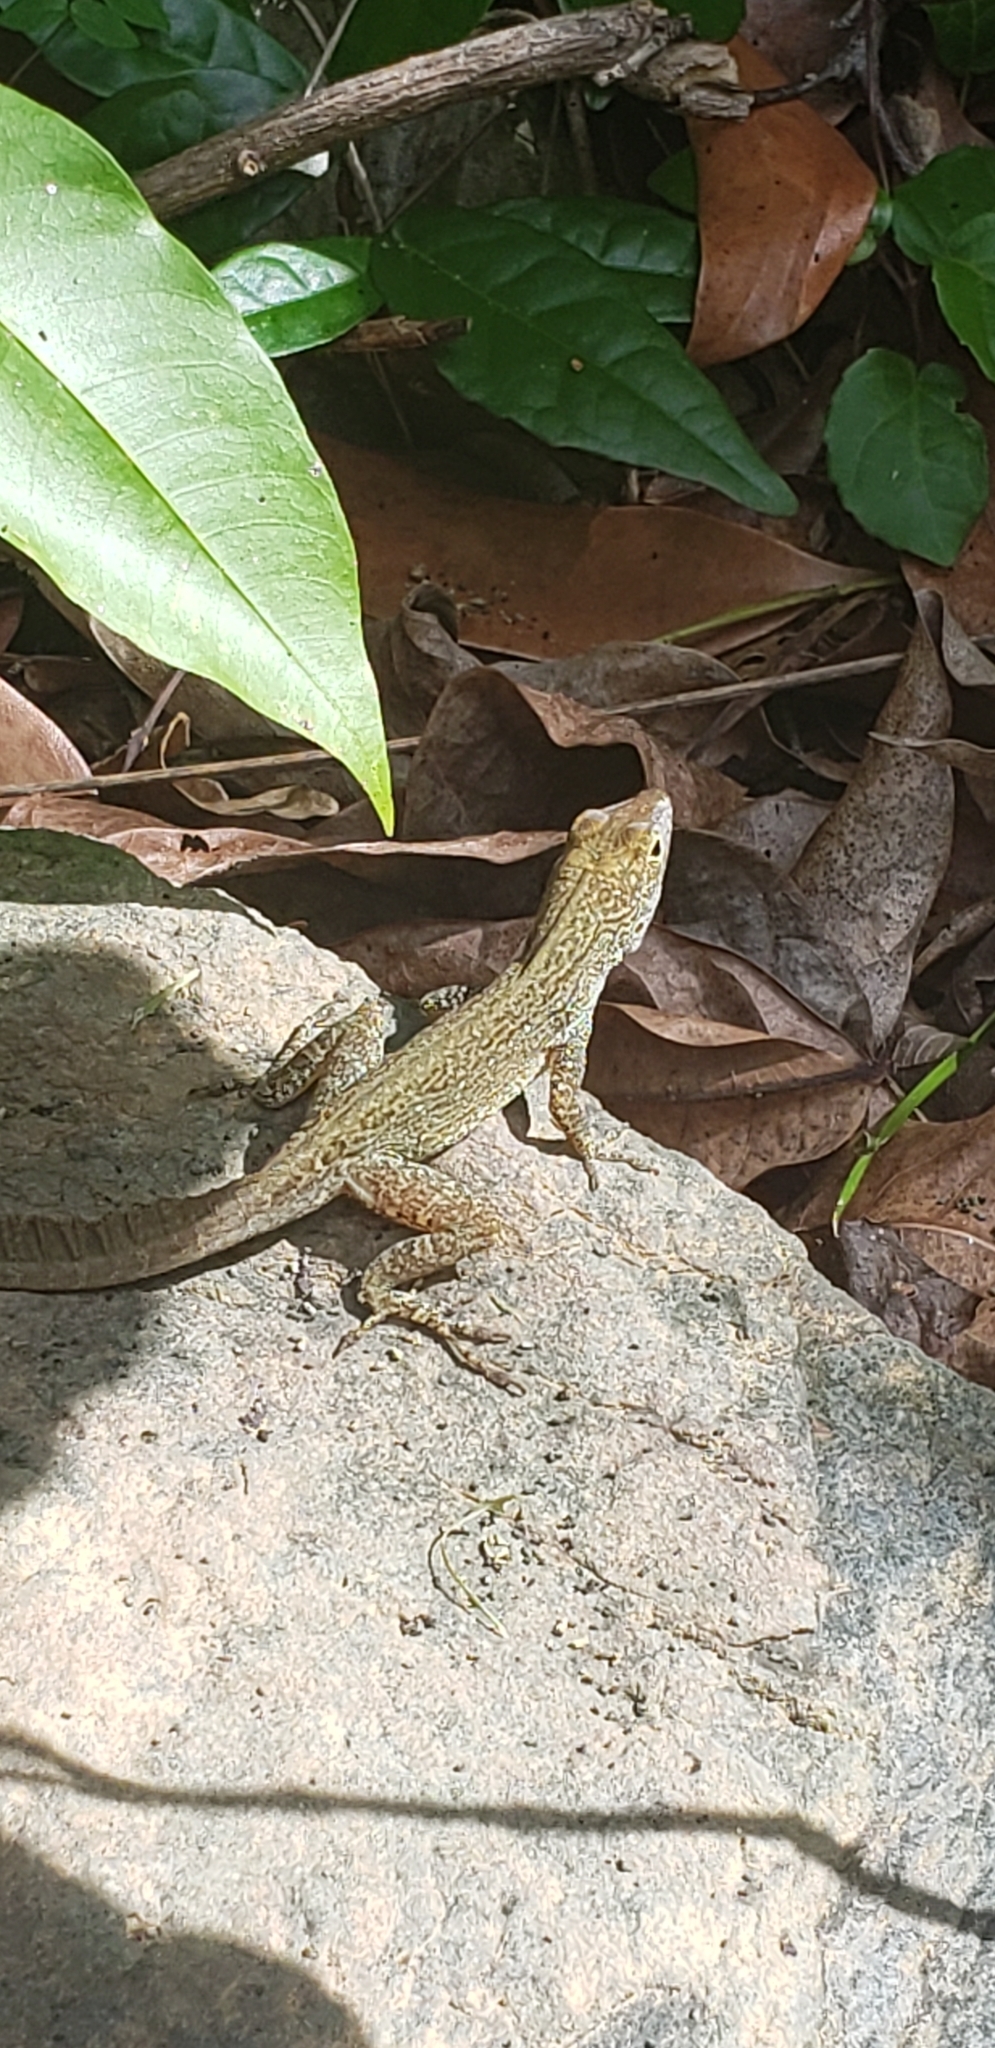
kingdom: Animalia
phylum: Chordata
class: Squamata
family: Dactyloidae
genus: Anolis
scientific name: Anolis cristatellus
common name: Crested anole
